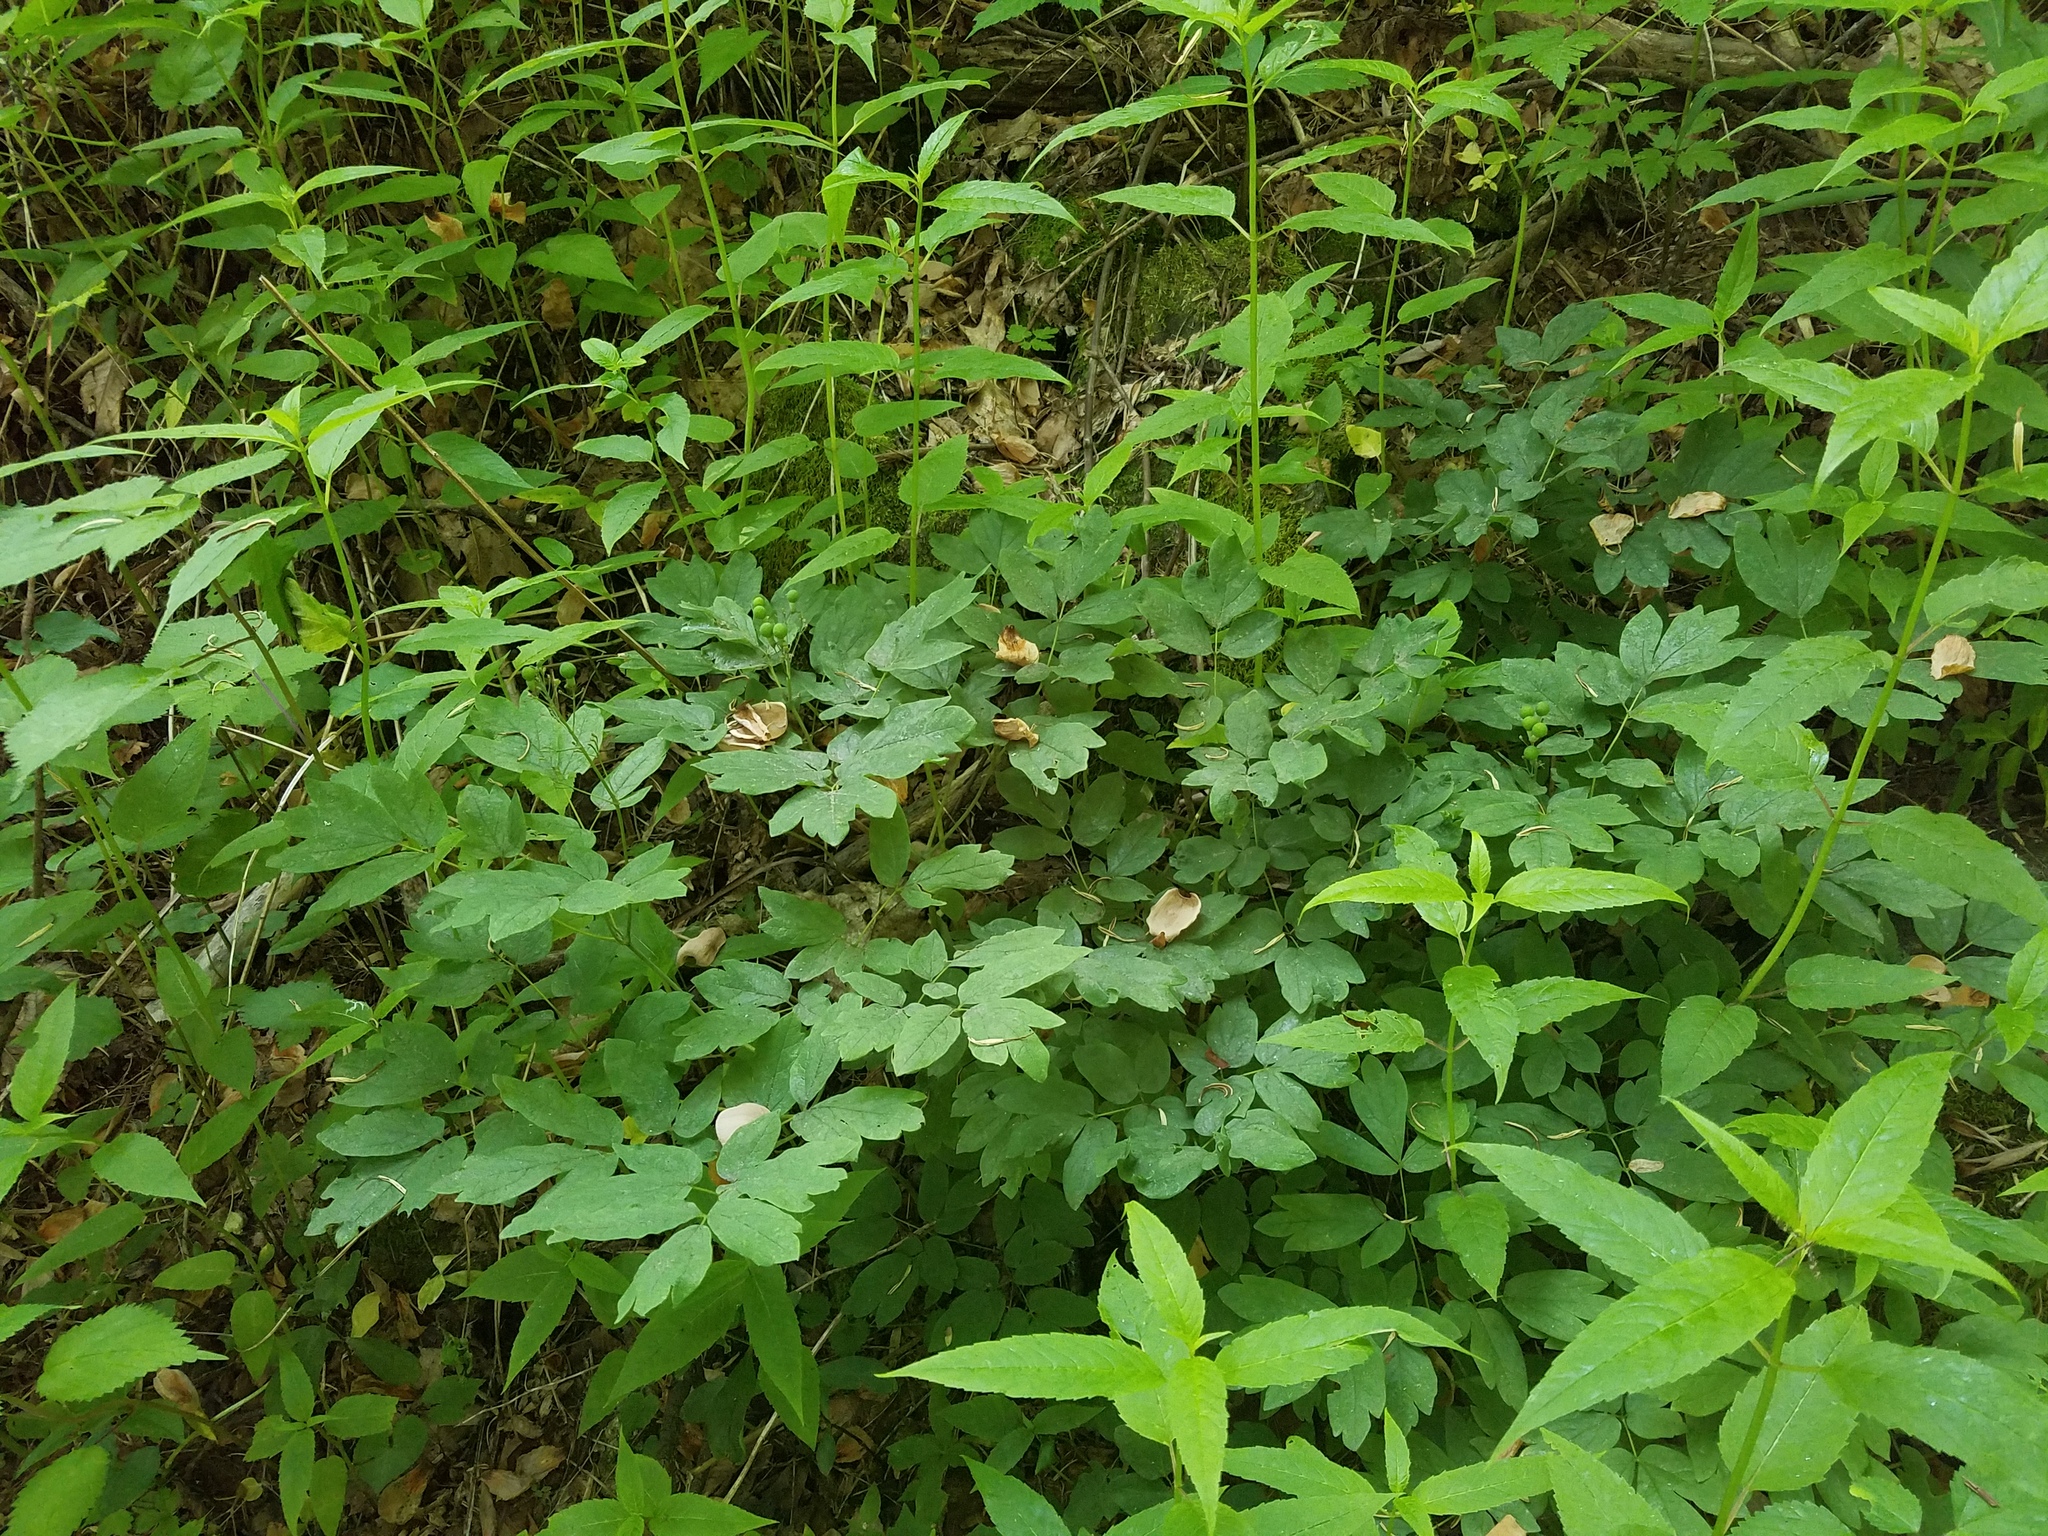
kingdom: Plantae
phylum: Tracheophyta
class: Magnoliopsida
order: Ranunculales
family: Berberidaceae
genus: Caulophyllum
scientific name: Caulophyllum thalictroides
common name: Blue cohosh
